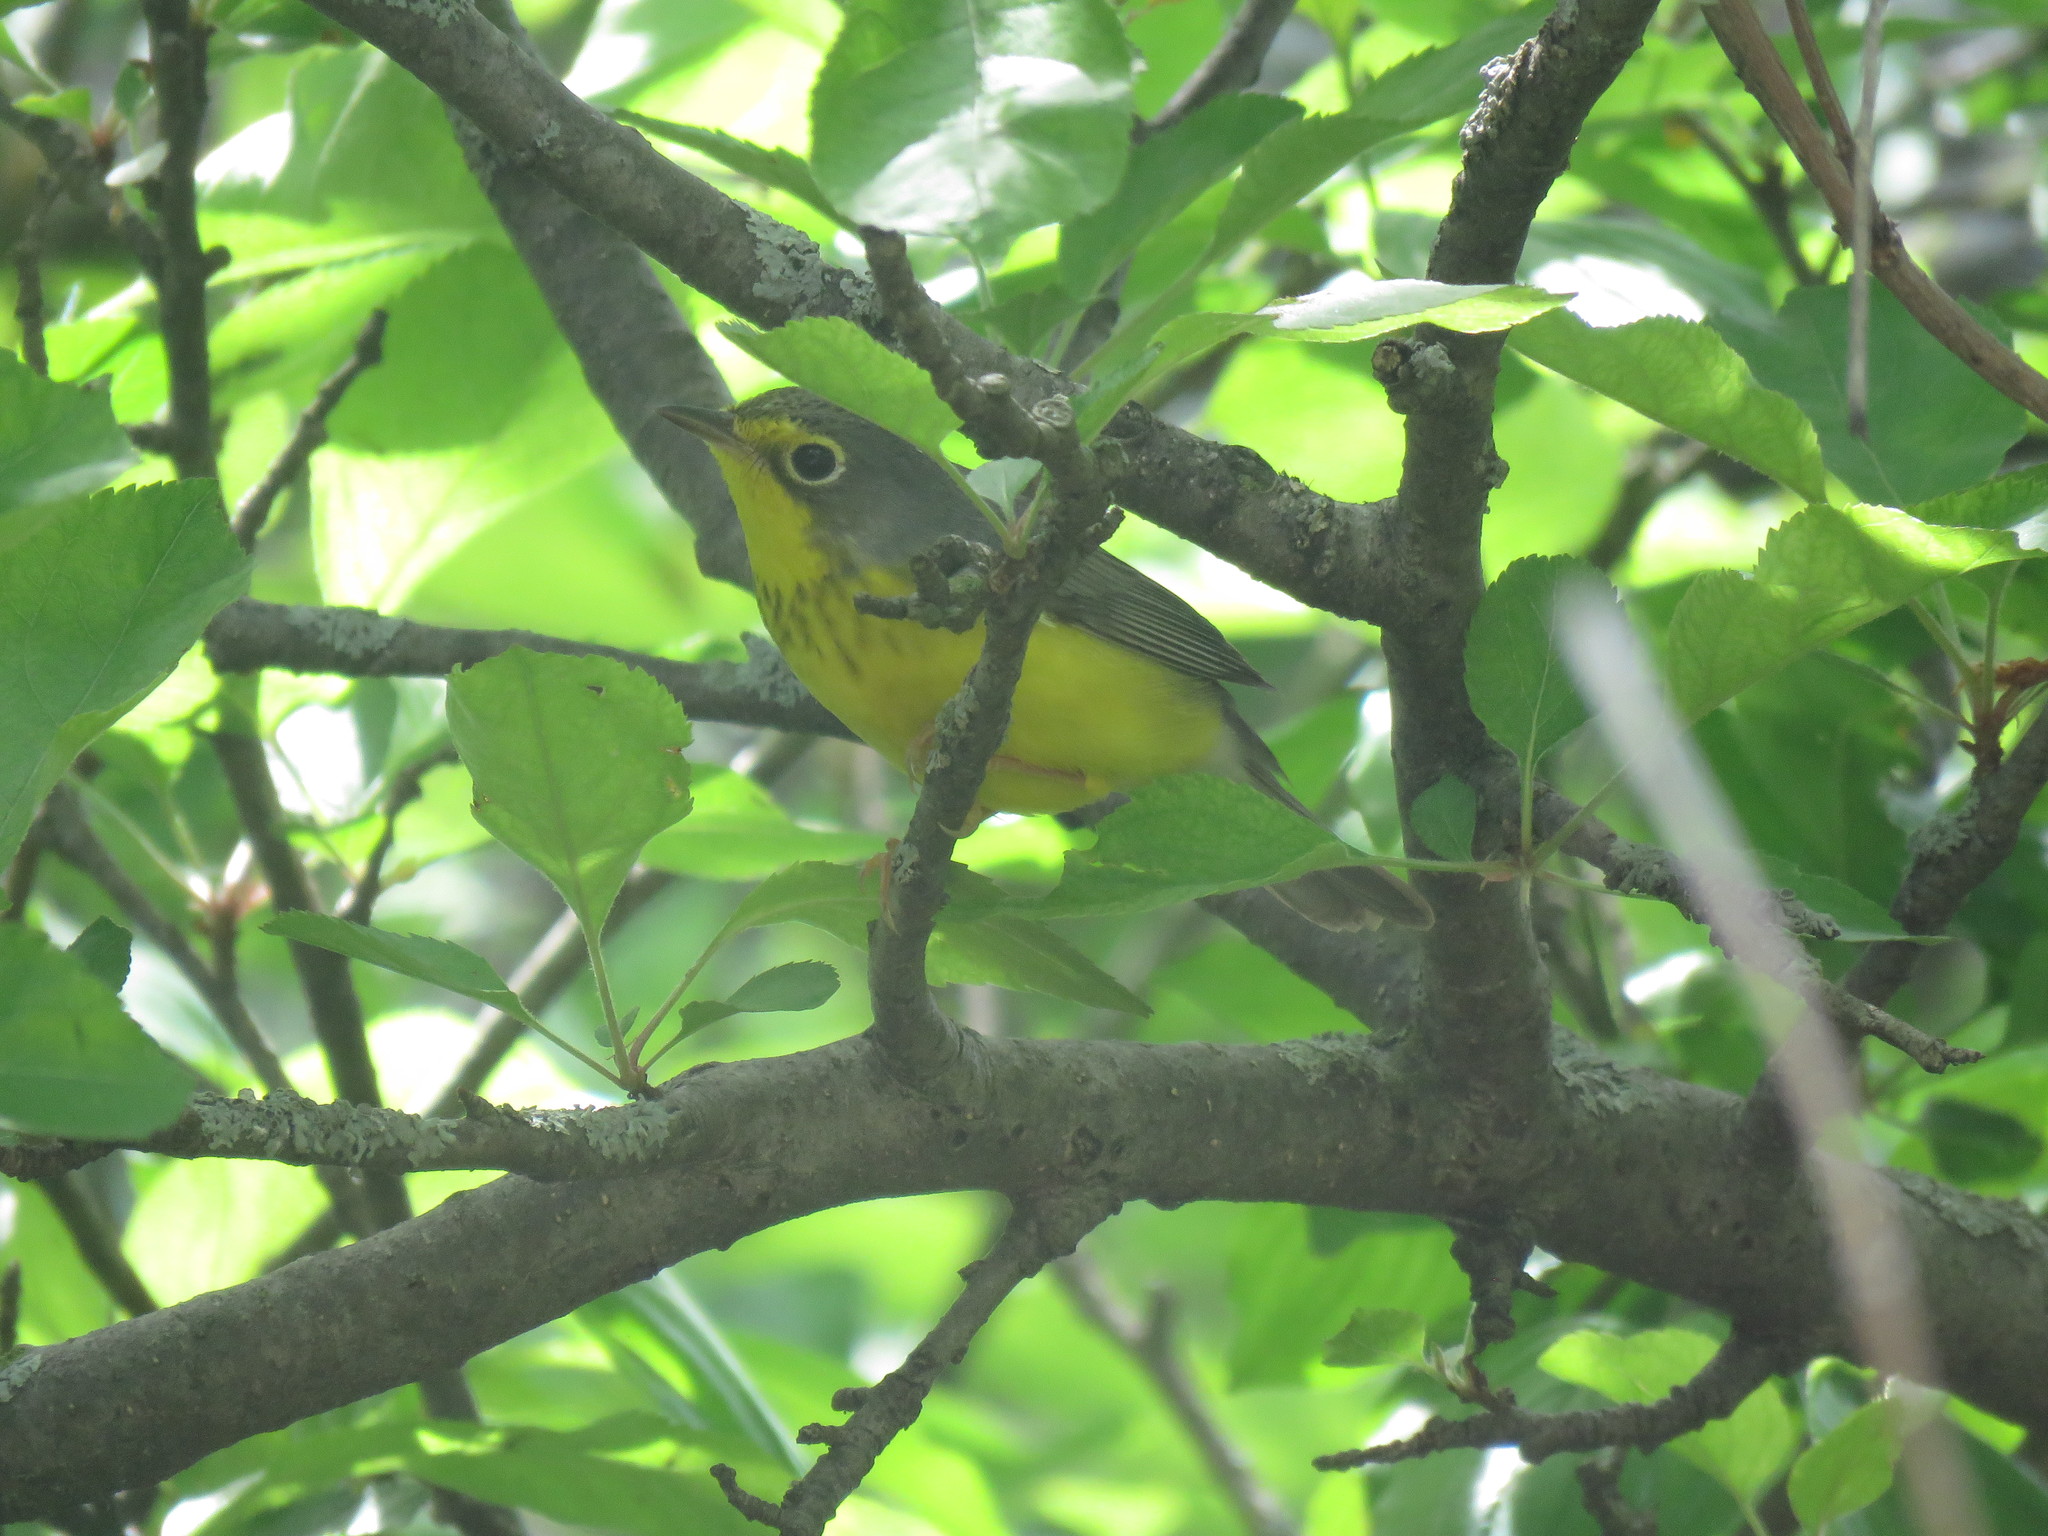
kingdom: Animalia
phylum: Chordata
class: Aves
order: Passeriformes
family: Parulidae
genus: Cardellina
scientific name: Cardellina canadensis
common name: Canada warbler
